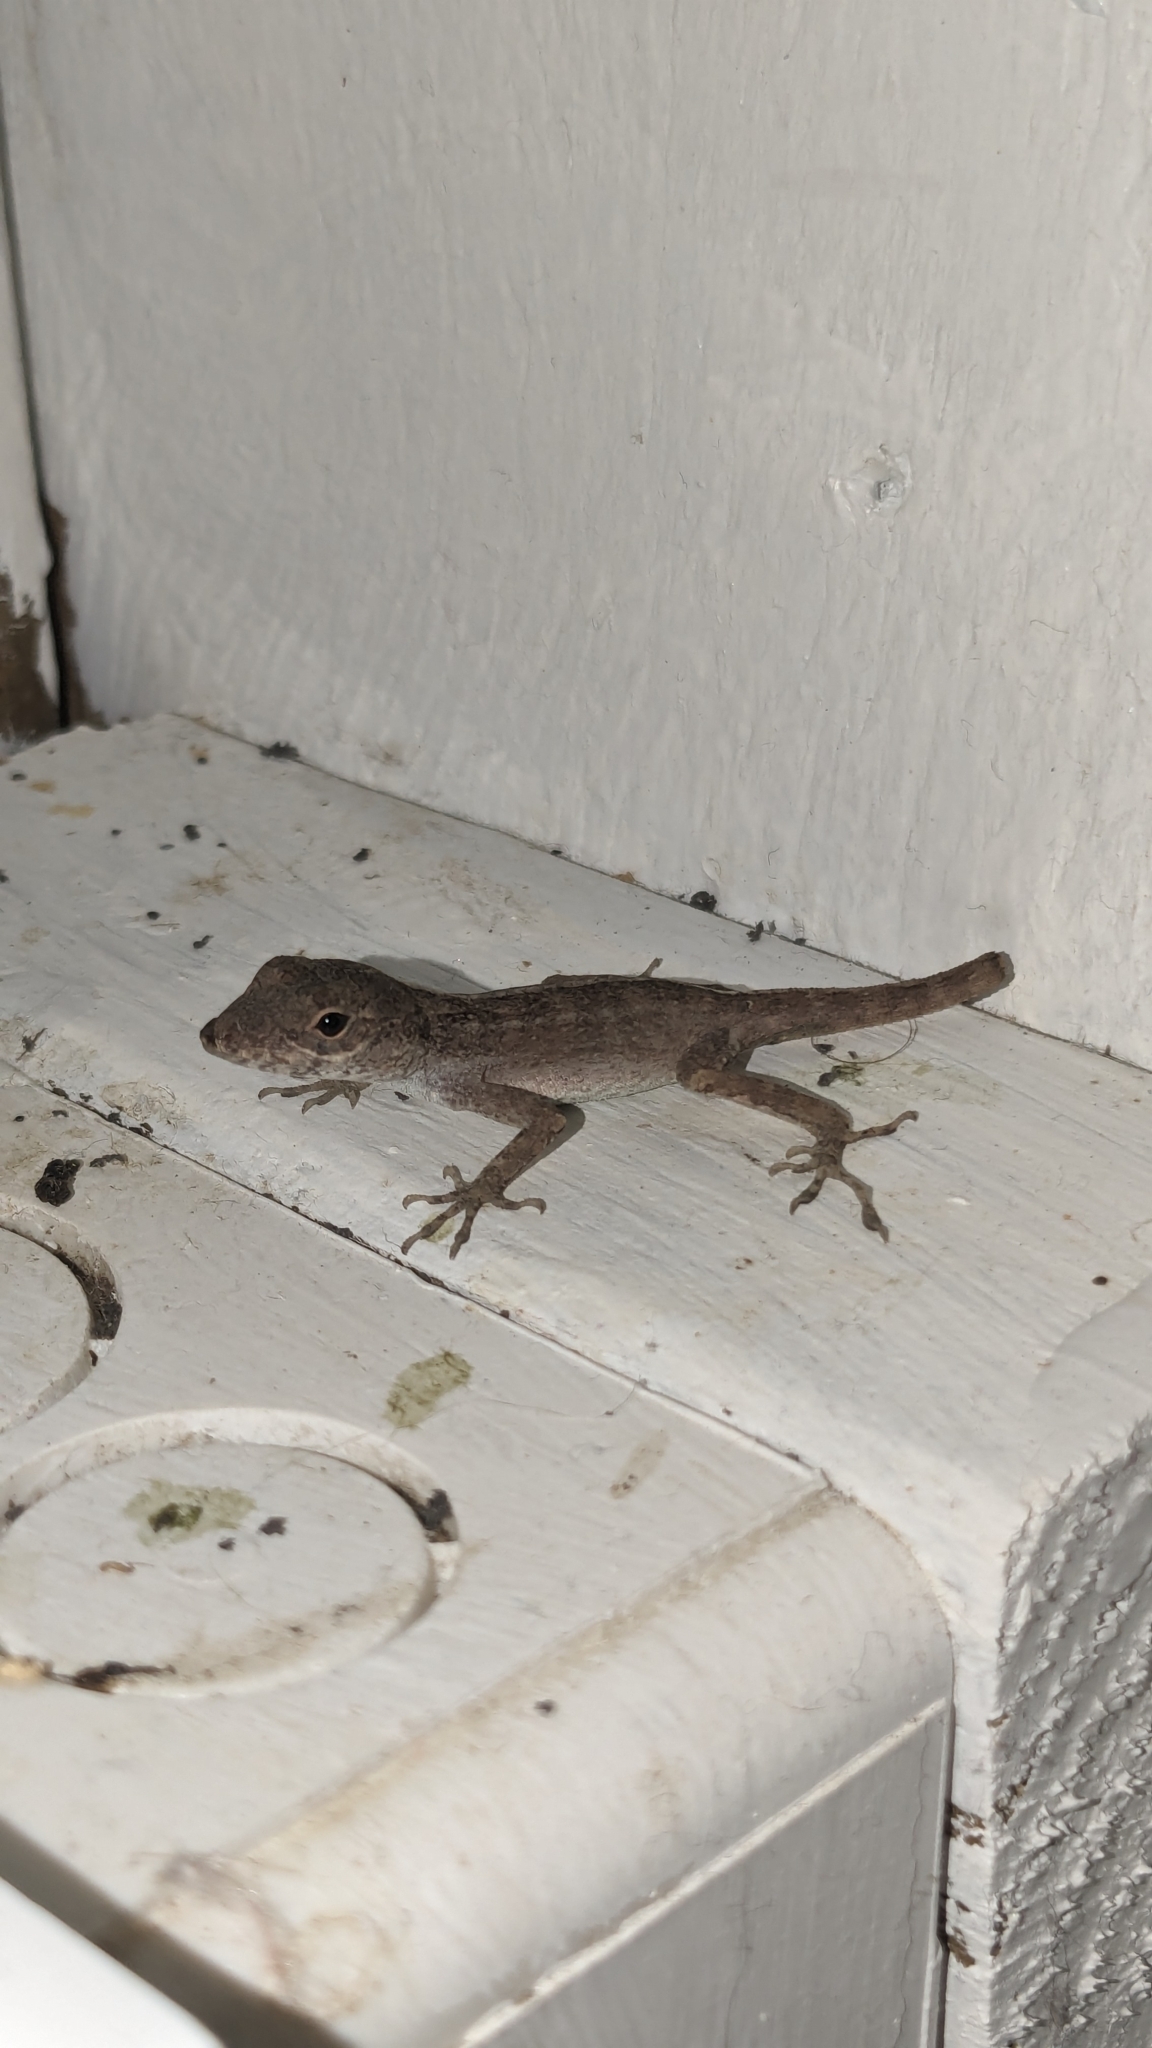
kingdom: Animalia
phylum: Chordata
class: Squamata
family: Dactyloidae
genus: Anolis
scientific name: Anolis cristatellus
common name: Crested anole
